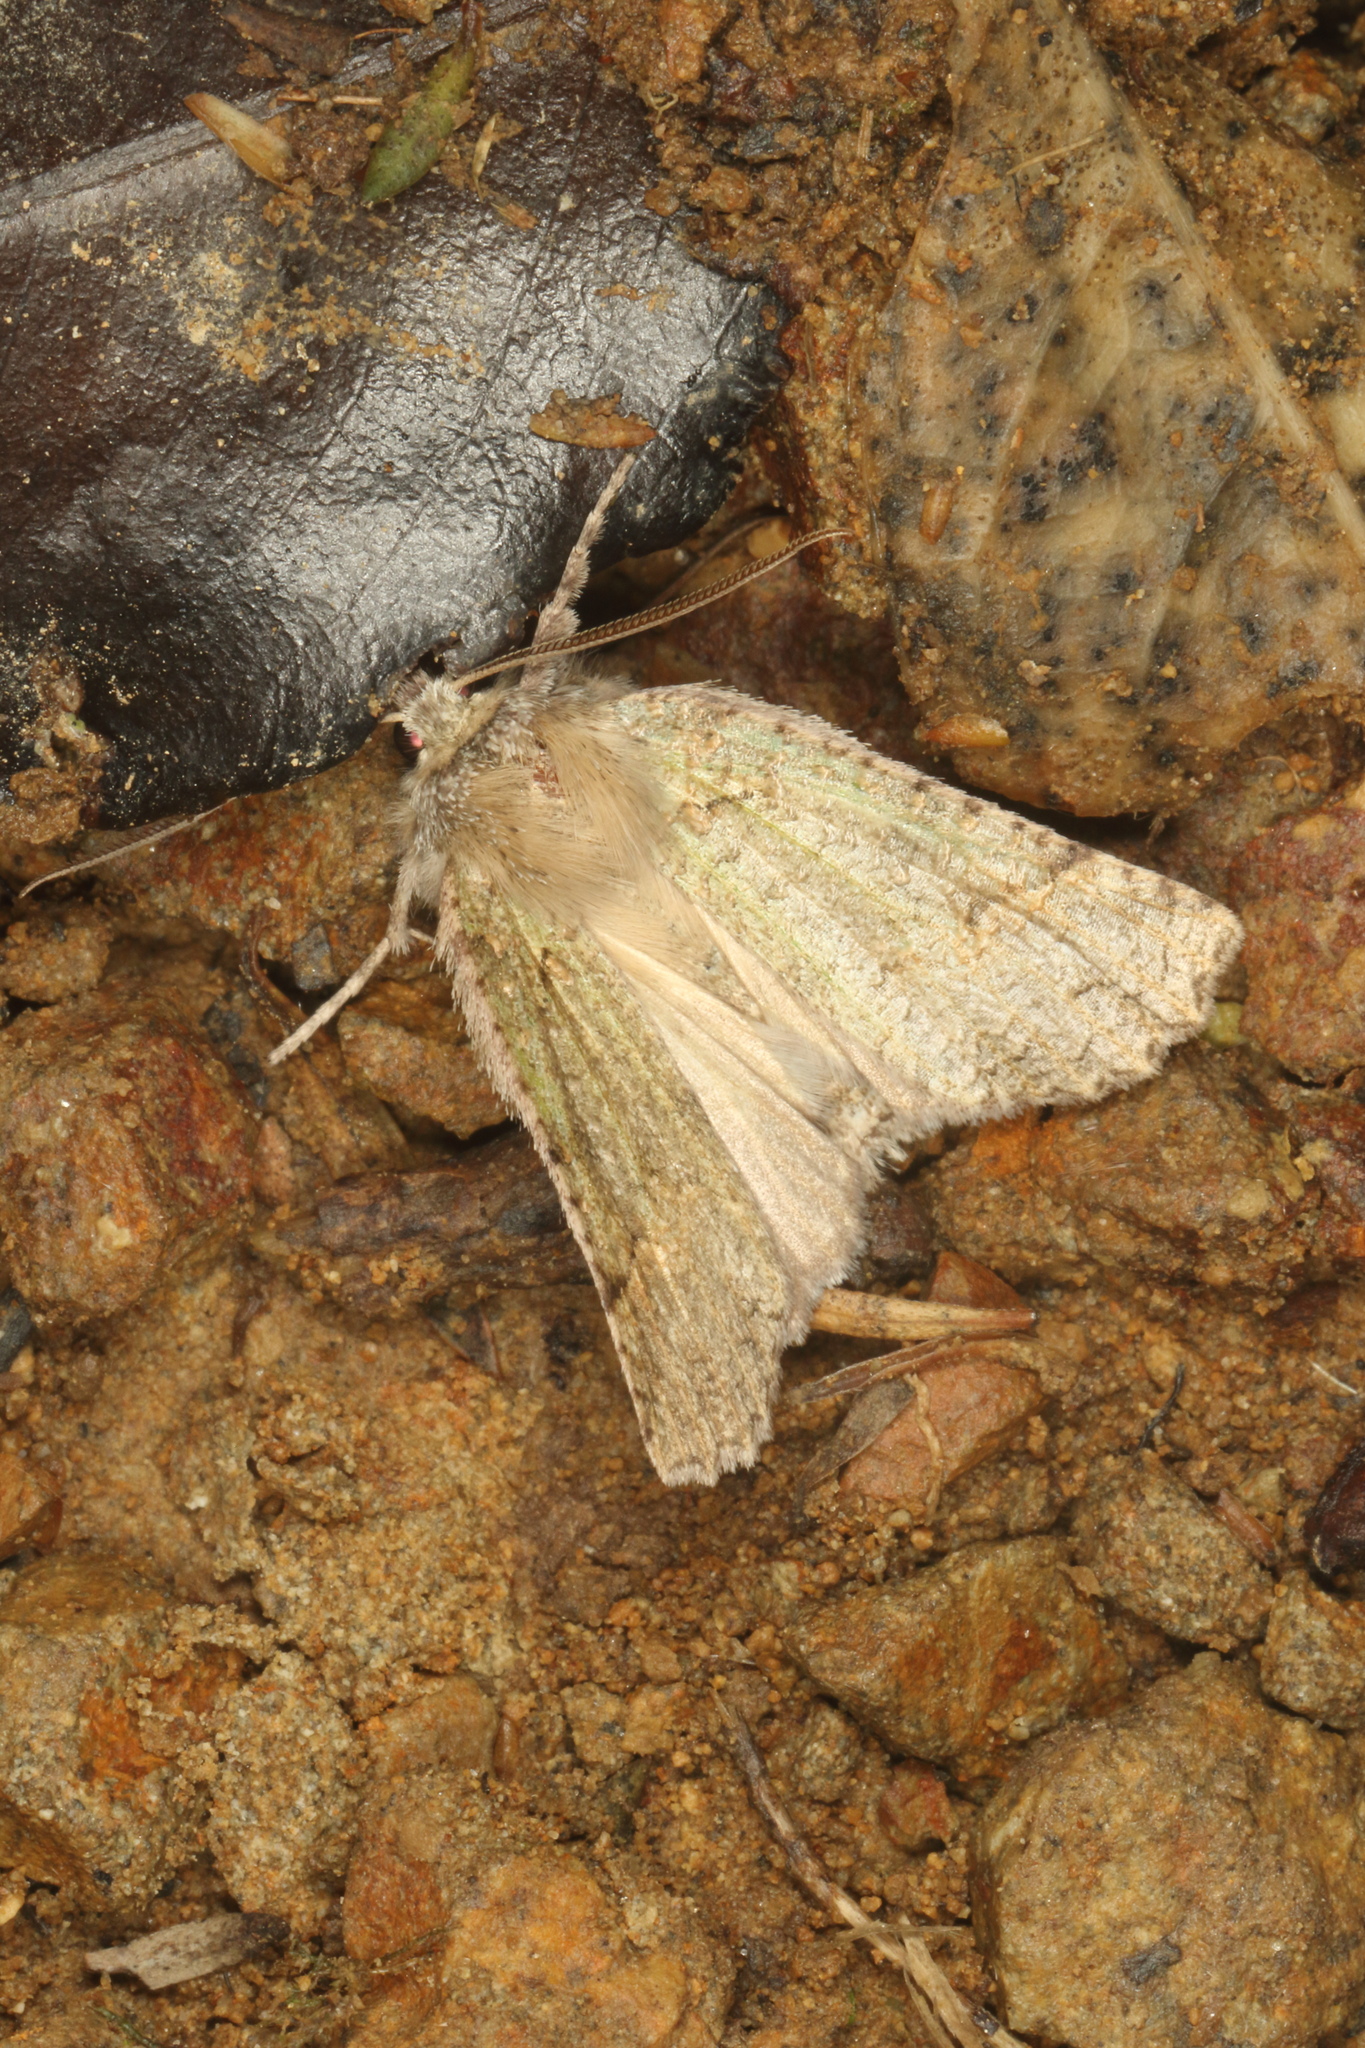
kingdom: Animalia
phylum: Arthropoda
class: Insecta
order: Lepidoptera
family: Geometridae
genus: Declana
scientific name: Declana floccosa
